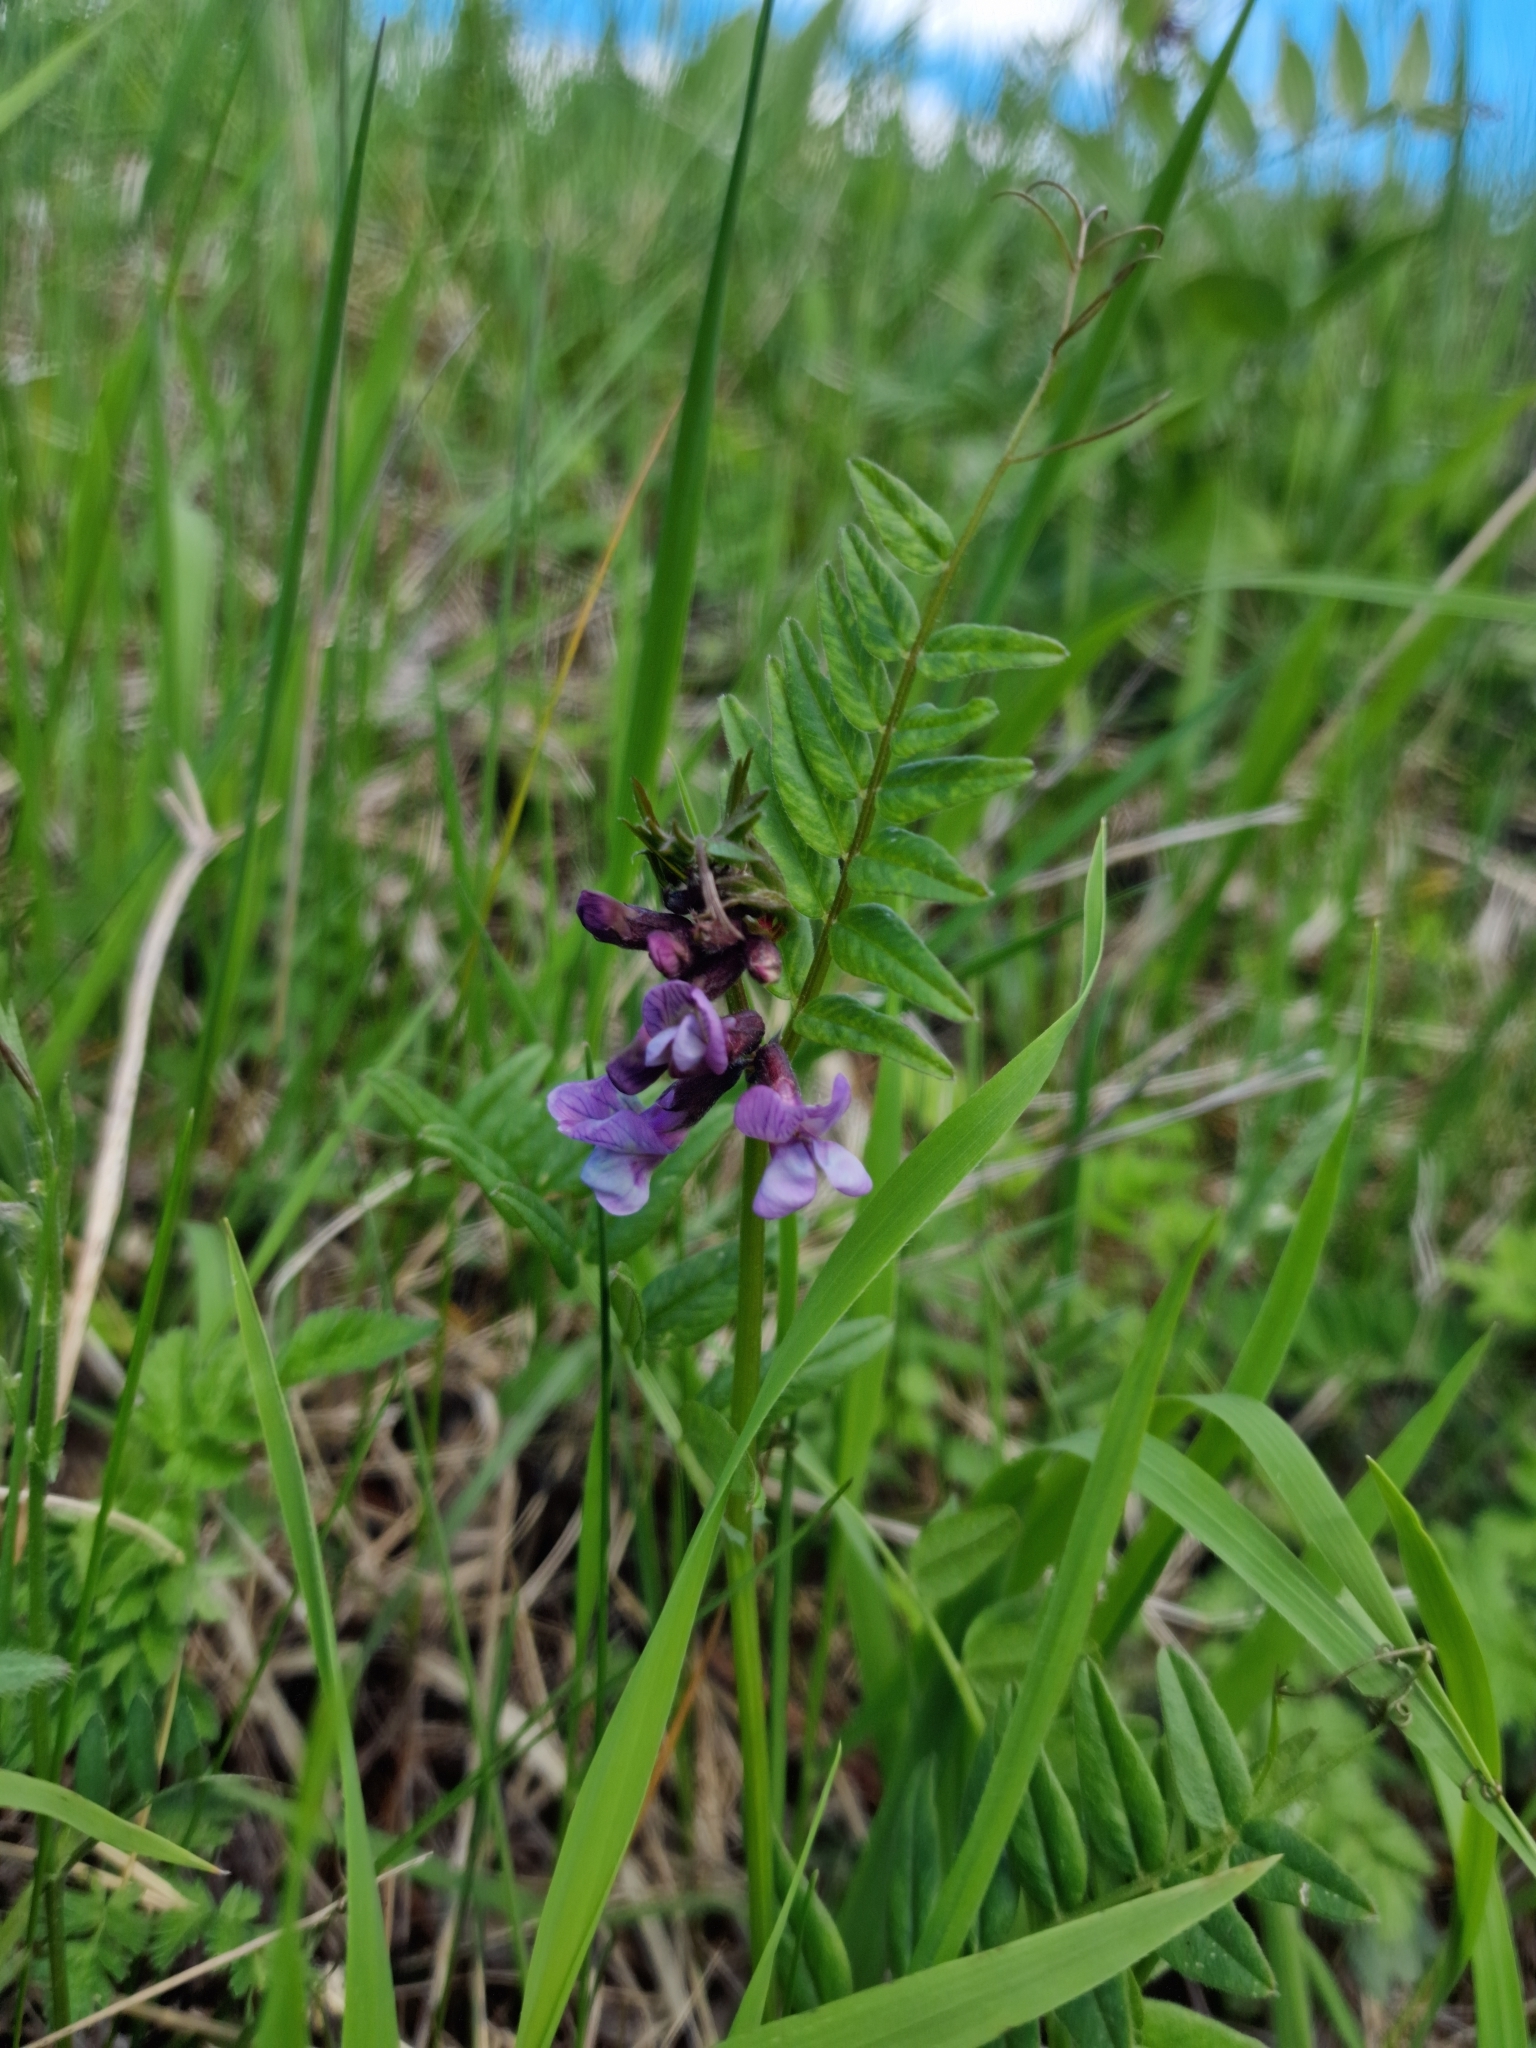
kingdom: Plantae
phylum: Tracheophyta
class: Magnoliopsida
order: Fabales
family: Fabaceae
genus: Vicia
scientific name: Vicia sepium
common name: Bush vetch
